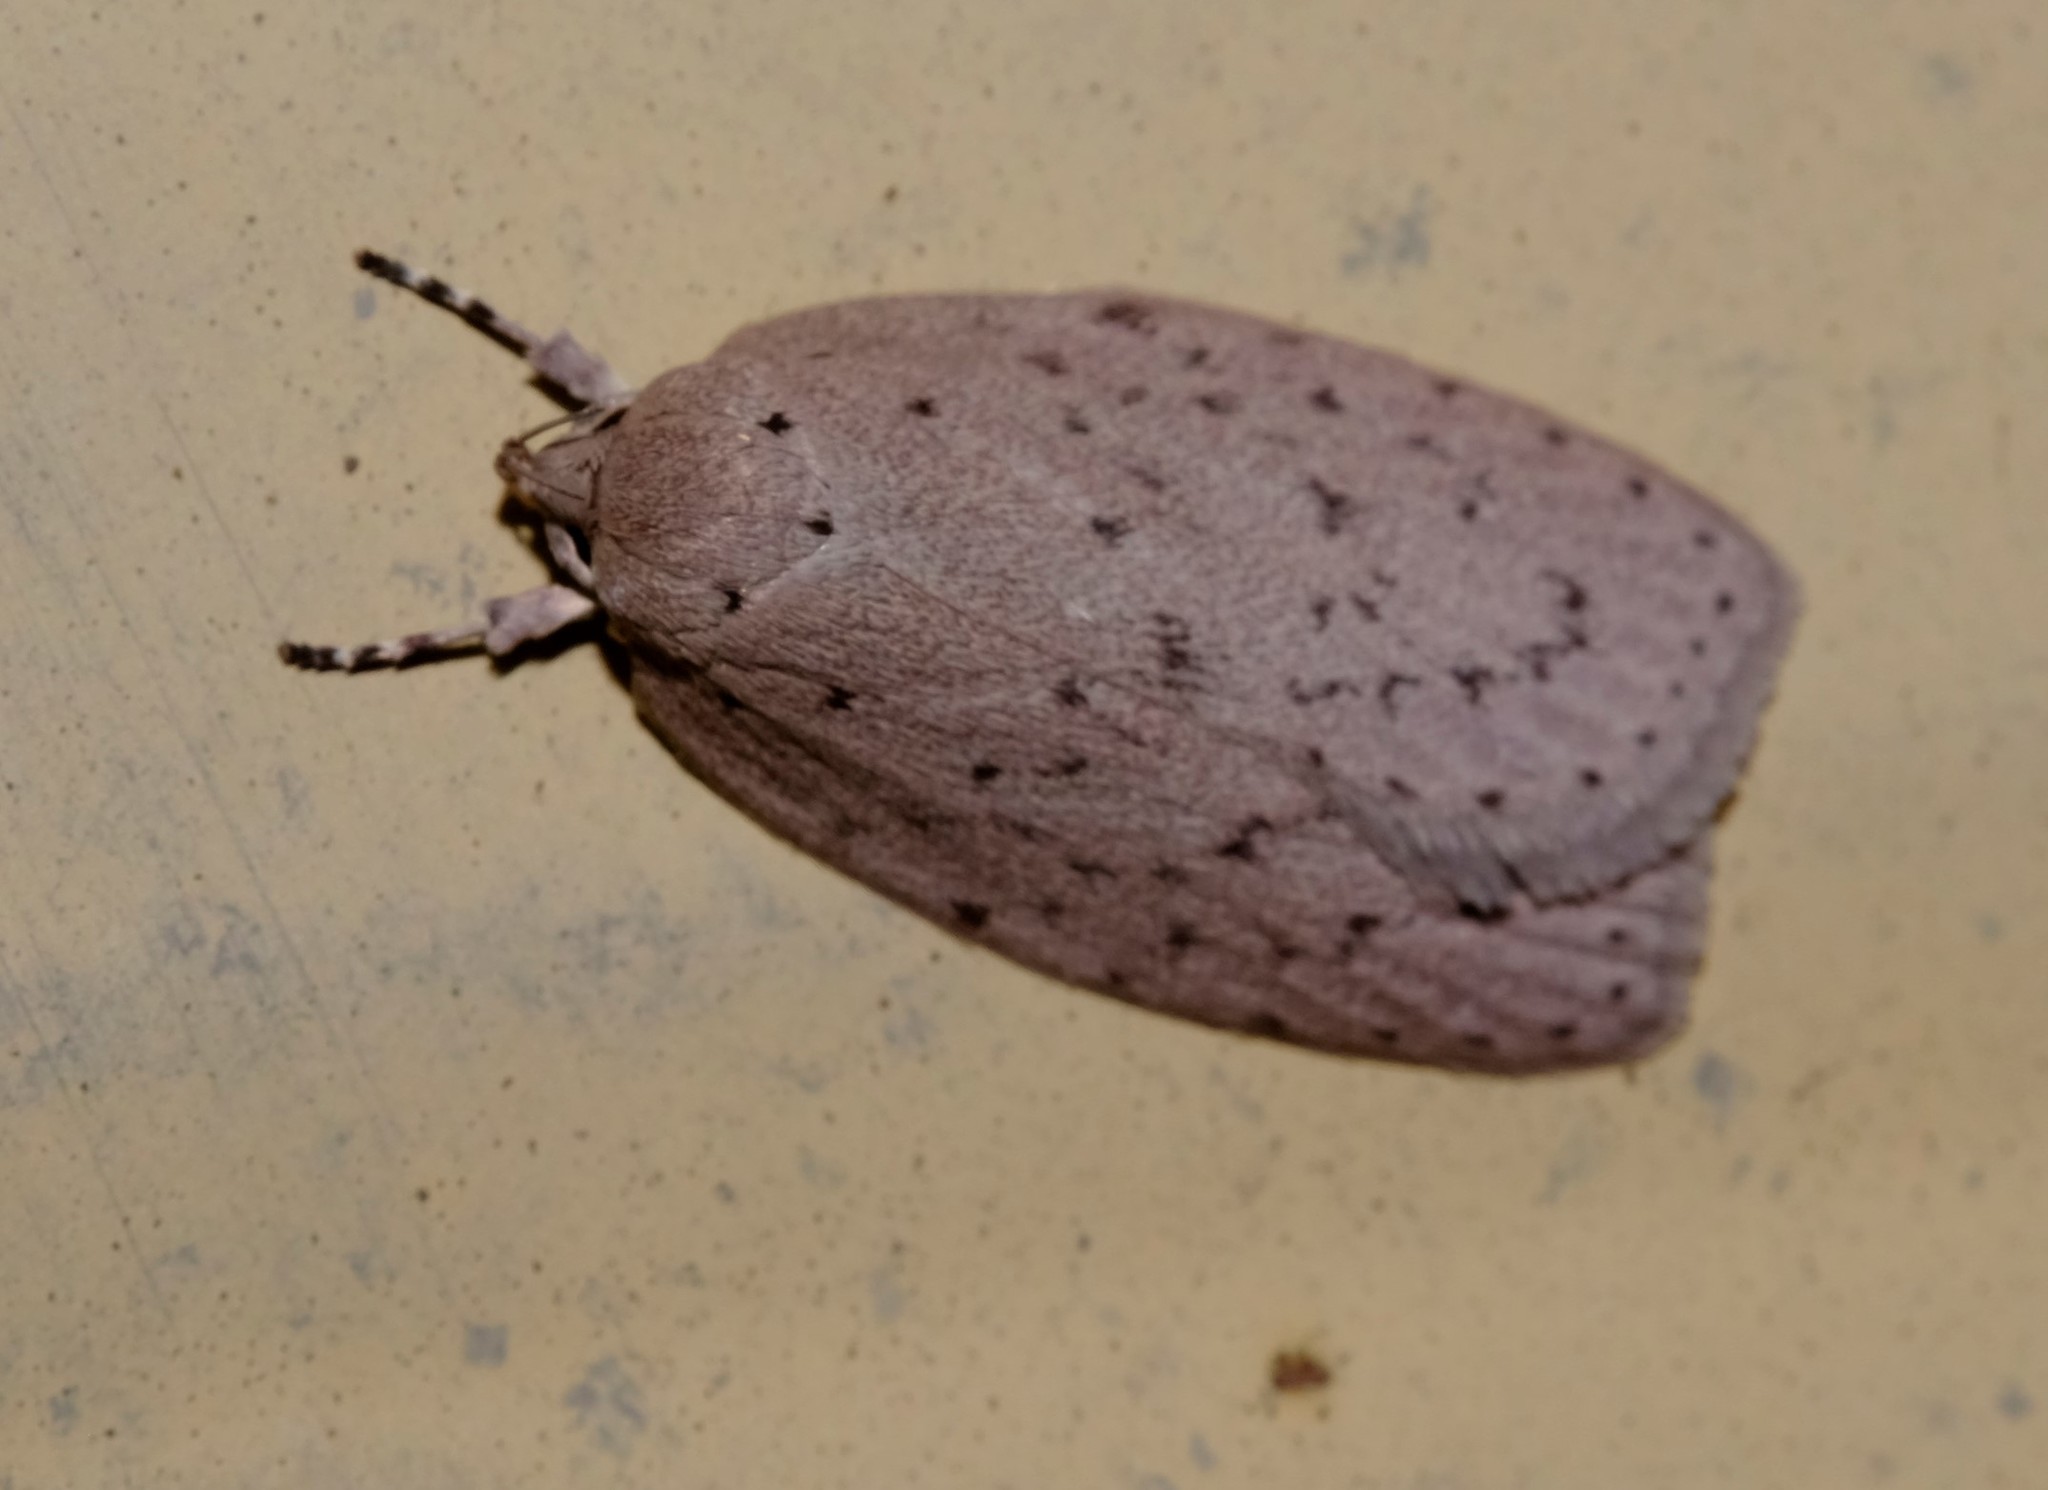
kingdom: Animalia
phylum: Arthropoda
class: Insecta
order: Lepidoptera
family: Oecophoridae
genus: Garrha
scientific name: Garrha carnea
